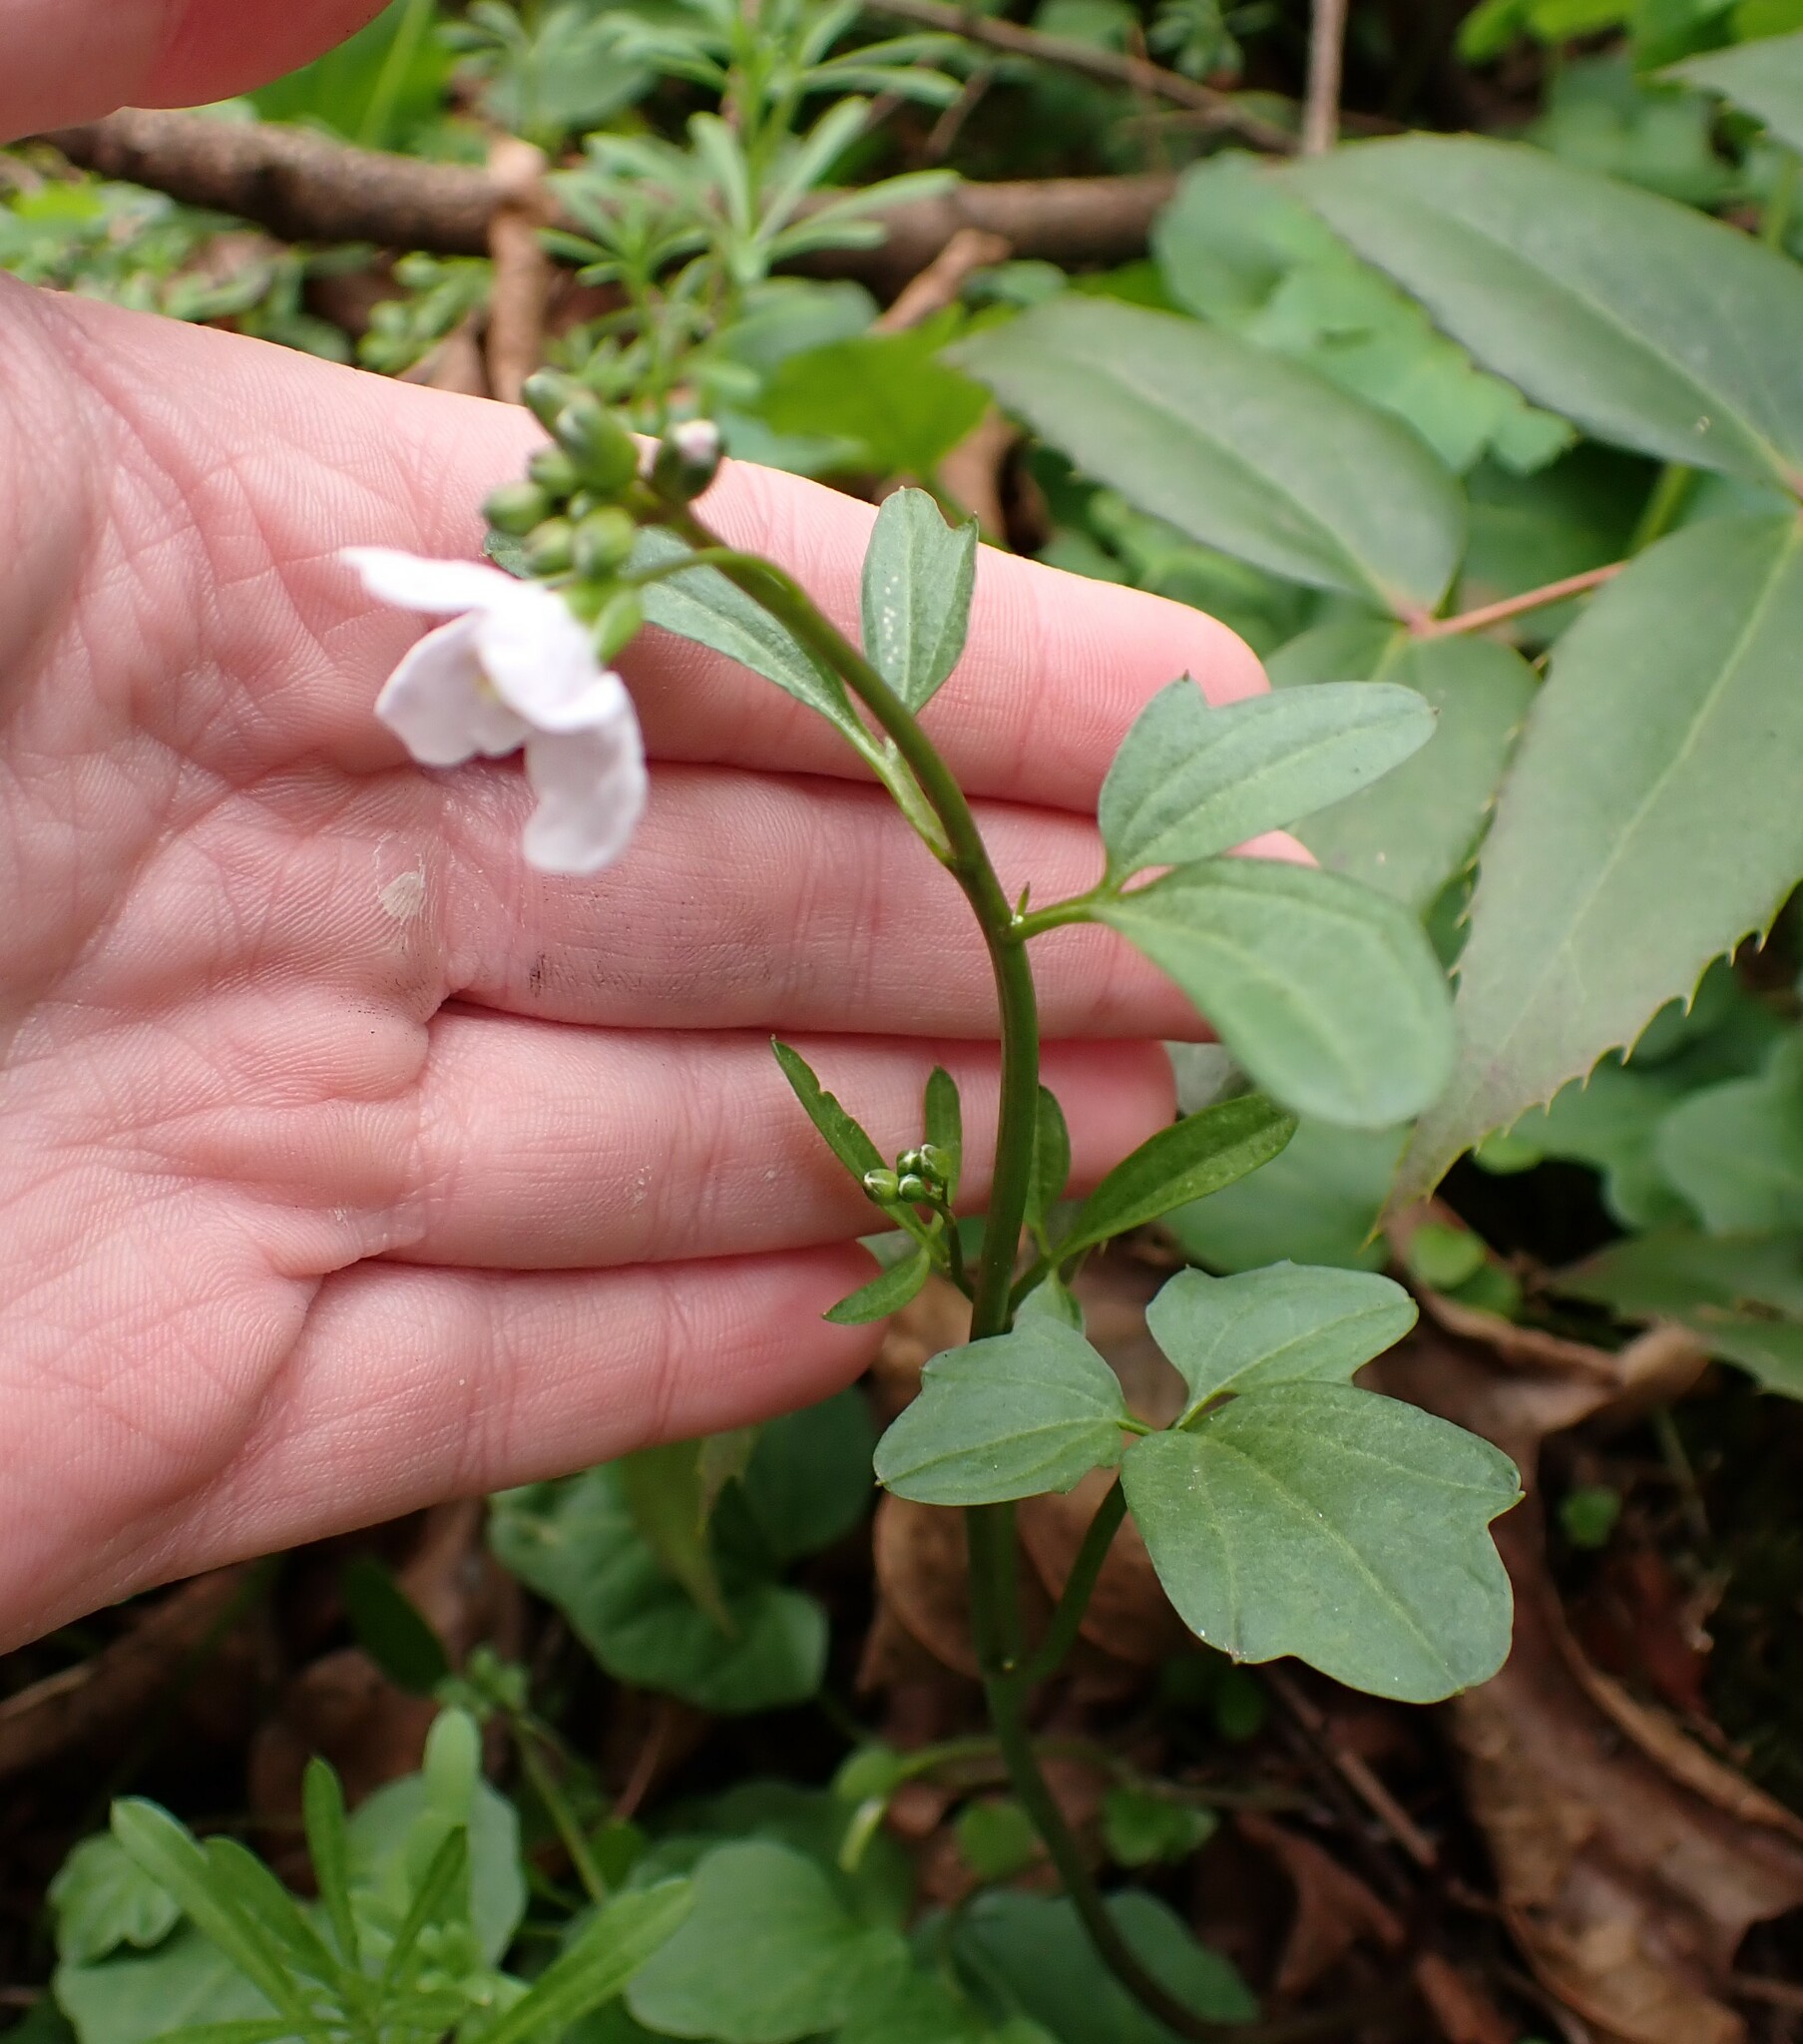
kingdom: Plantae
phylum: Tracheophyta
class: Magnoliopsida
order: Brassicales
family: Brassicaceae
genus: Cardamine
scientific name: Cardamine nuttallii
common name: Nuttall's toothwort
